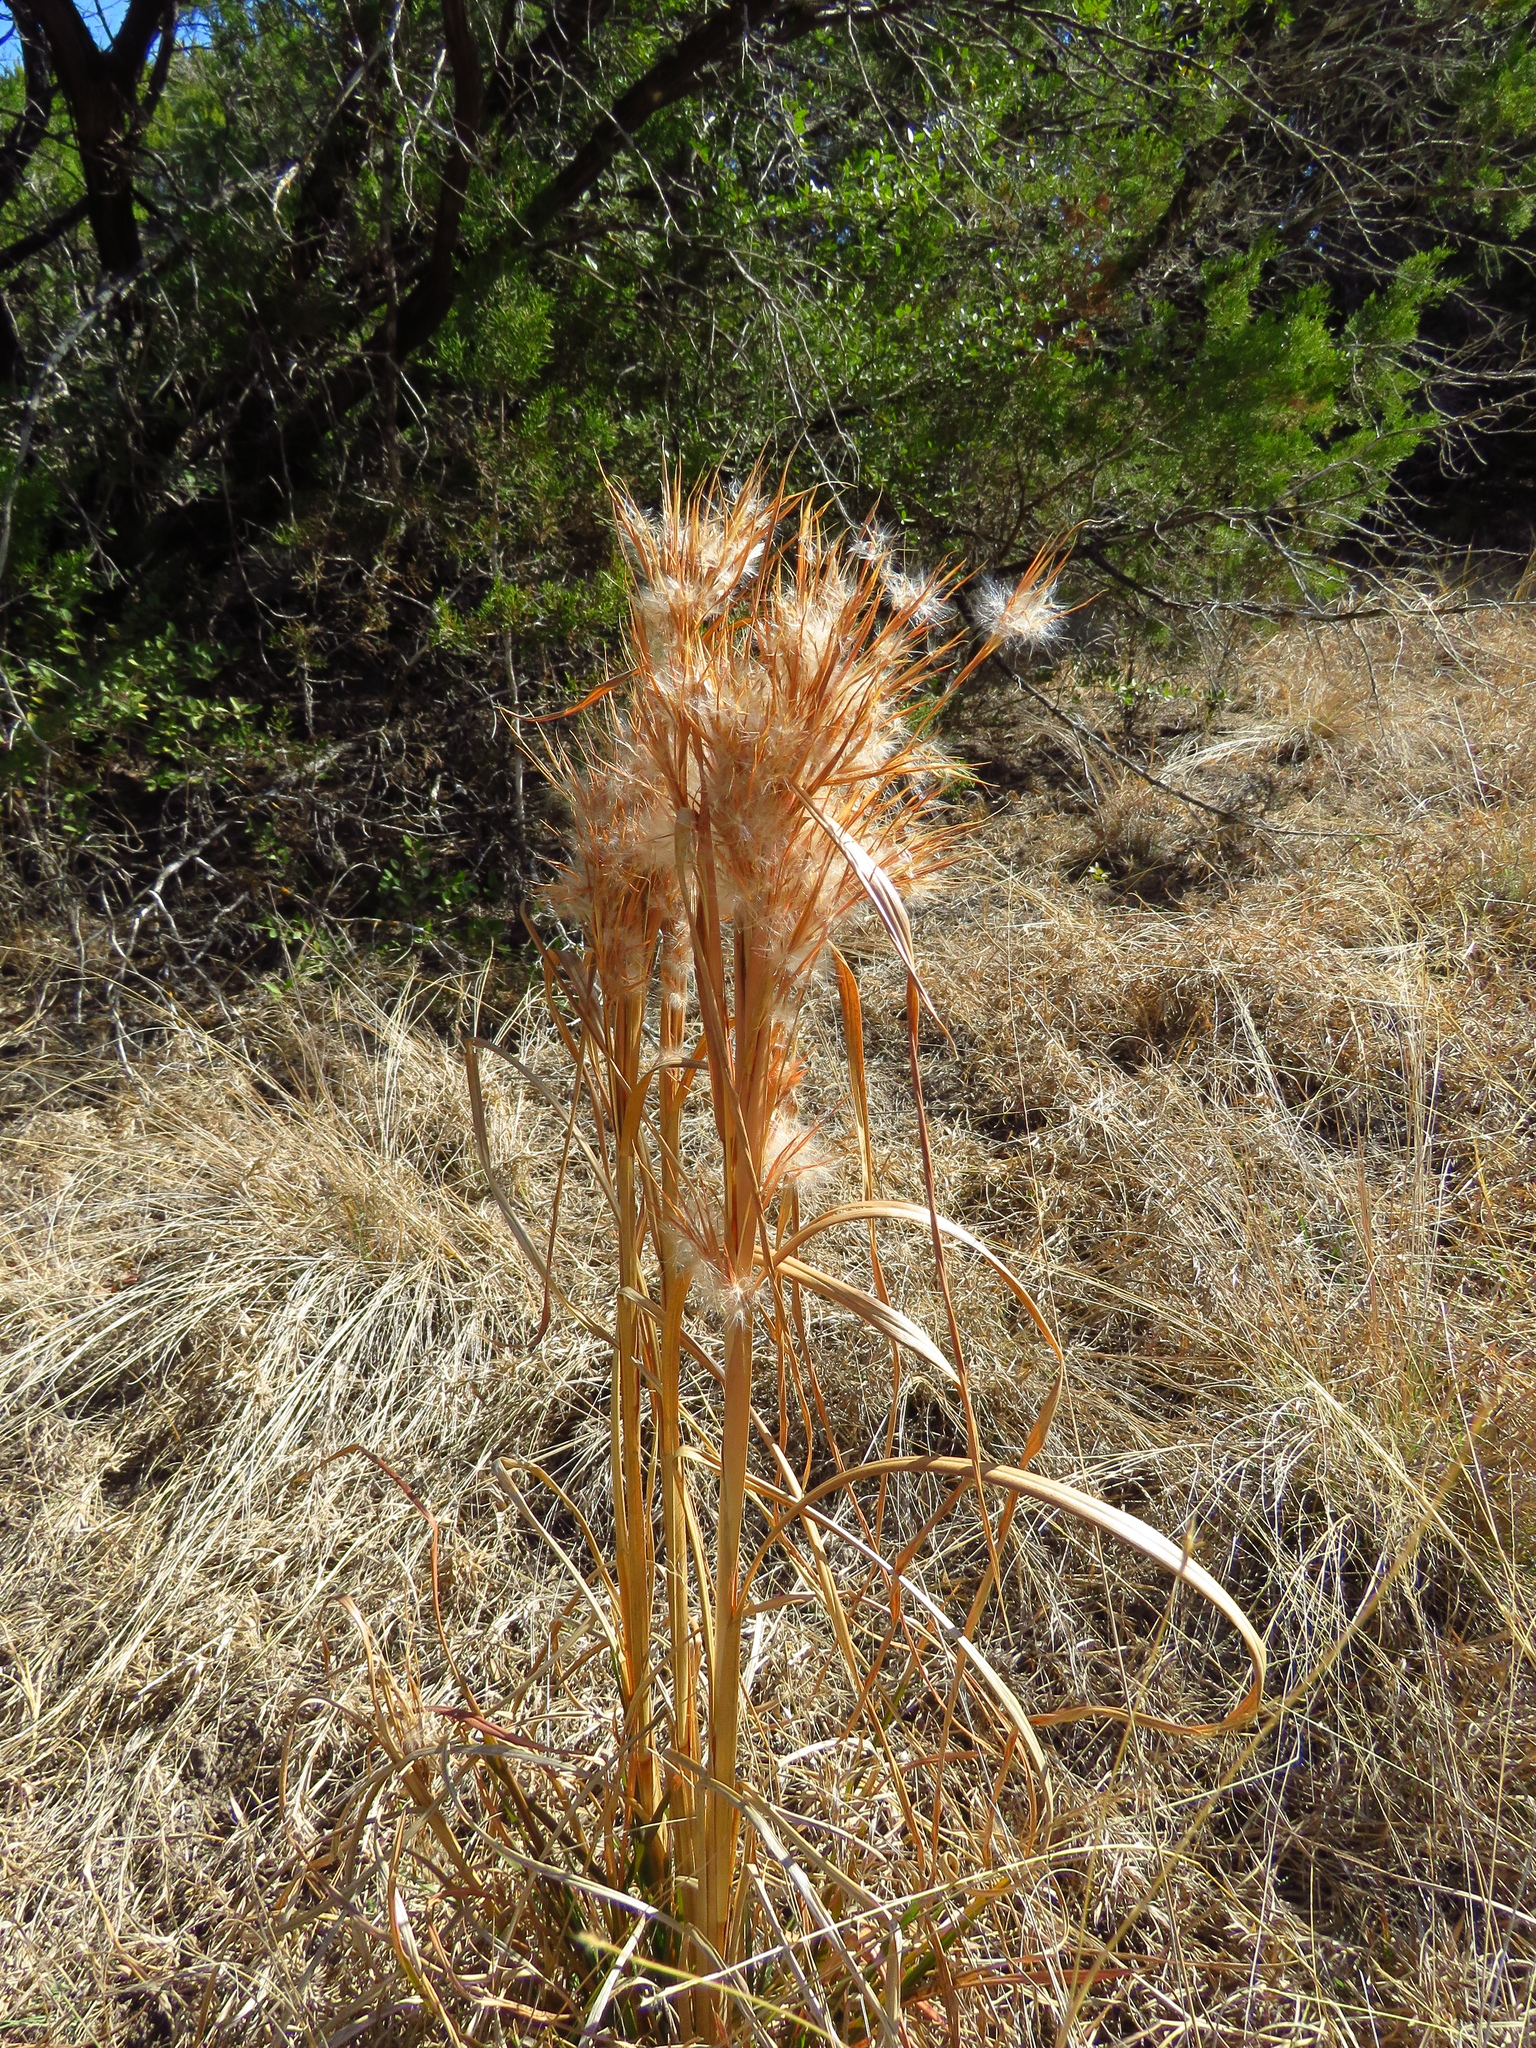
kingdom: Plantae
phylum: Tracheophyta
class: Liliopsida
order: Poales
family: Poaceae
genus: Andropogon
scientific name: Andropogon tenuispatheus
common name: Bushy bluestem
